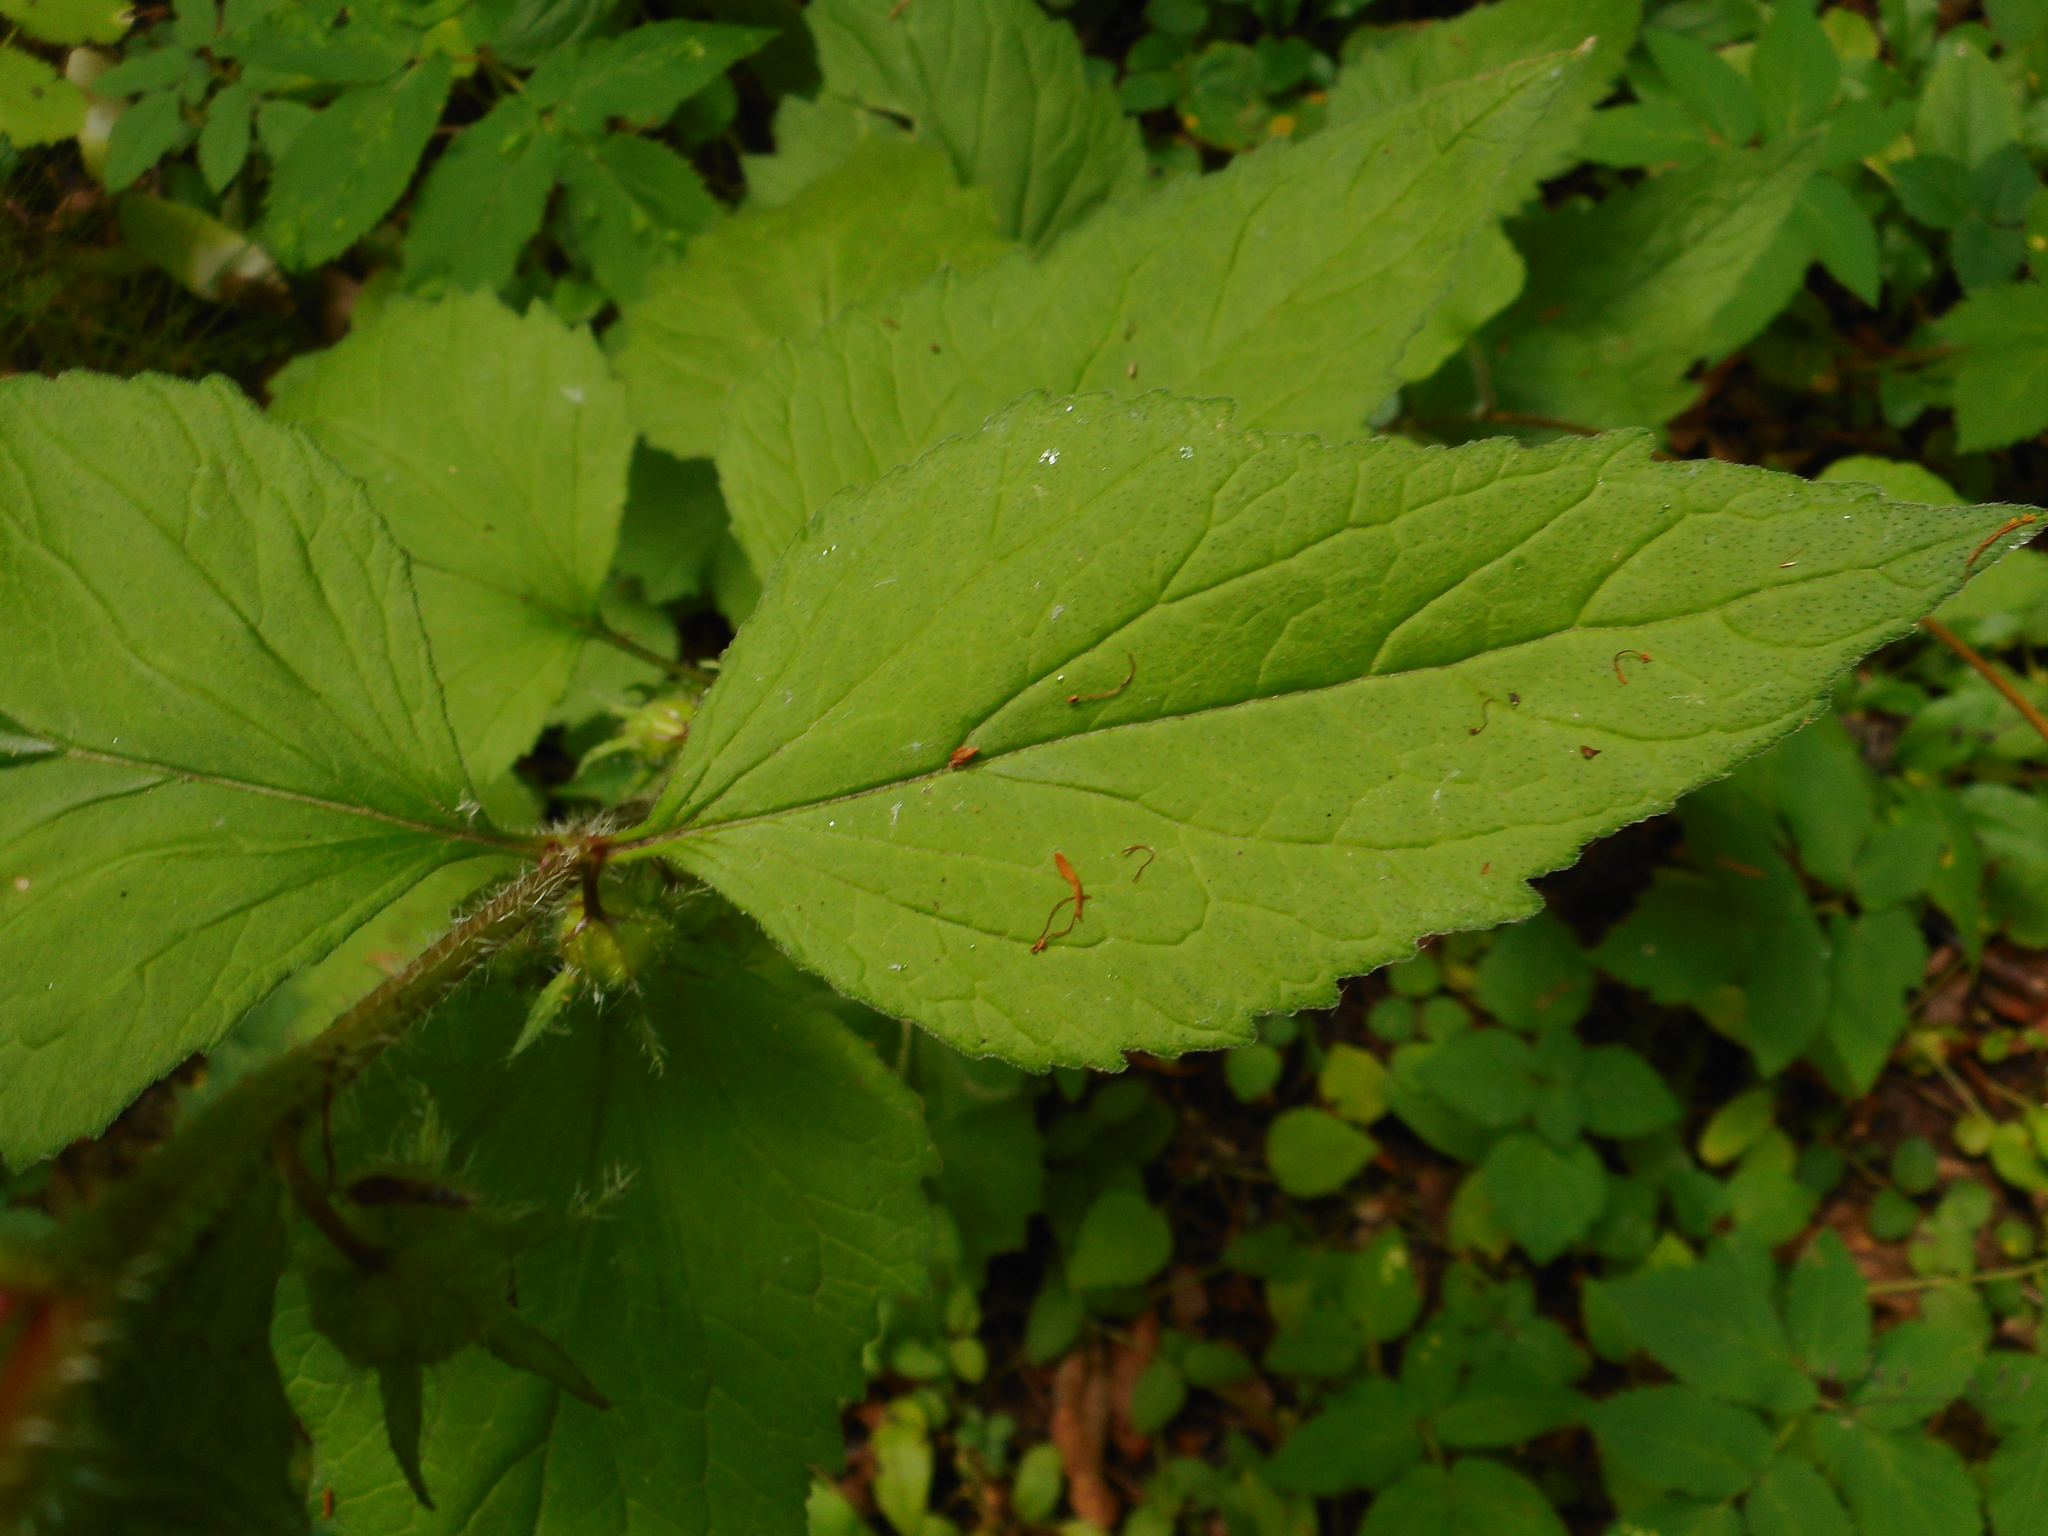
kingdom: Plantae
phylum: Tracheophyta
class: Magnoliopsida
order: Asterales
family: Campanulaceae
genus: Campanula
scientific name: Campanula trachelium
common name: Nettle-leaved bellflower
